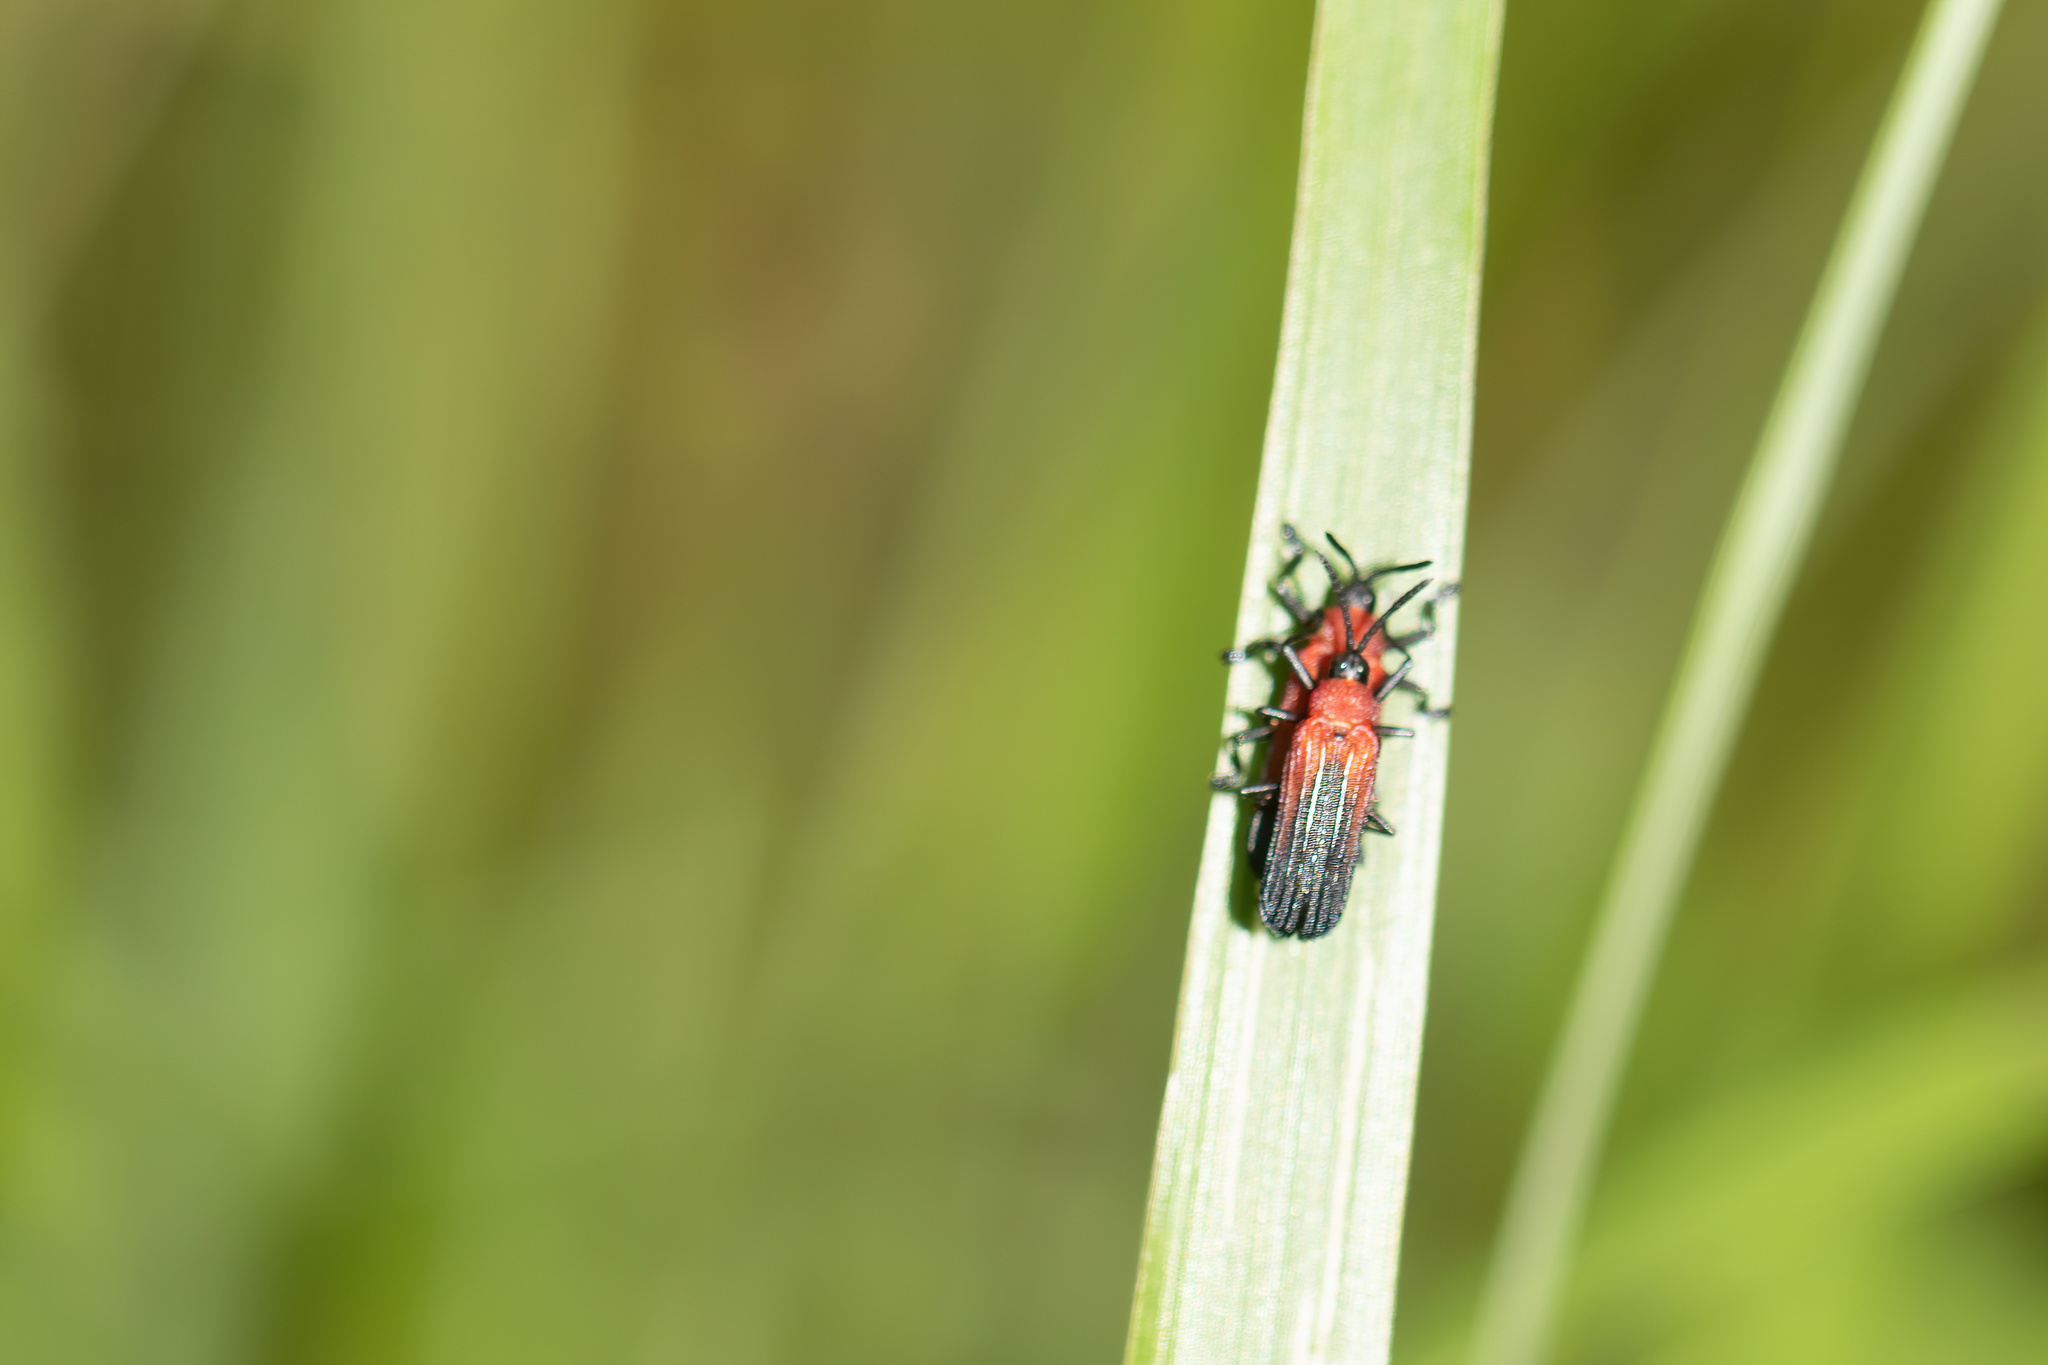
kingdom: Animalia
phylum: Arthropoda
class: Insecta
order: Coleoptera
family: Chrysomelidae
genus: Chalepus
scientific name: Chalepus sanguinicollis
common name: Red-shouldered leaf beetle
